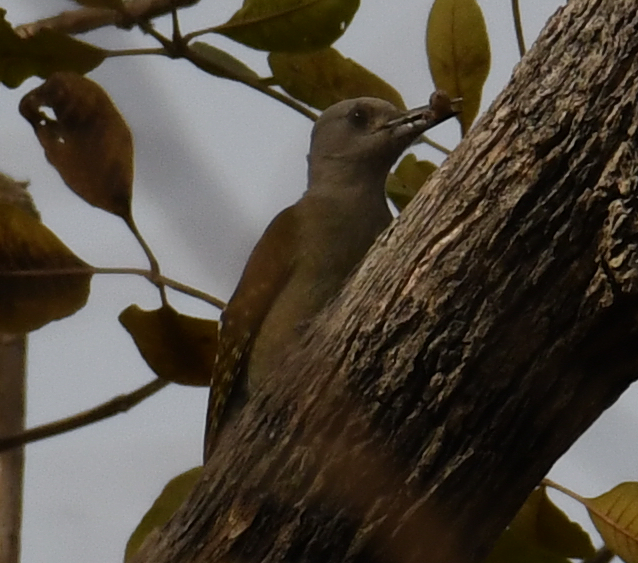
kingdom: Animalia
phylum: Chordata
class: Aves
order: Piciformes
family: Picidae
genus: Dendropicos
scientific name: Dendropicos goertae
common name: African grey woodpecker
